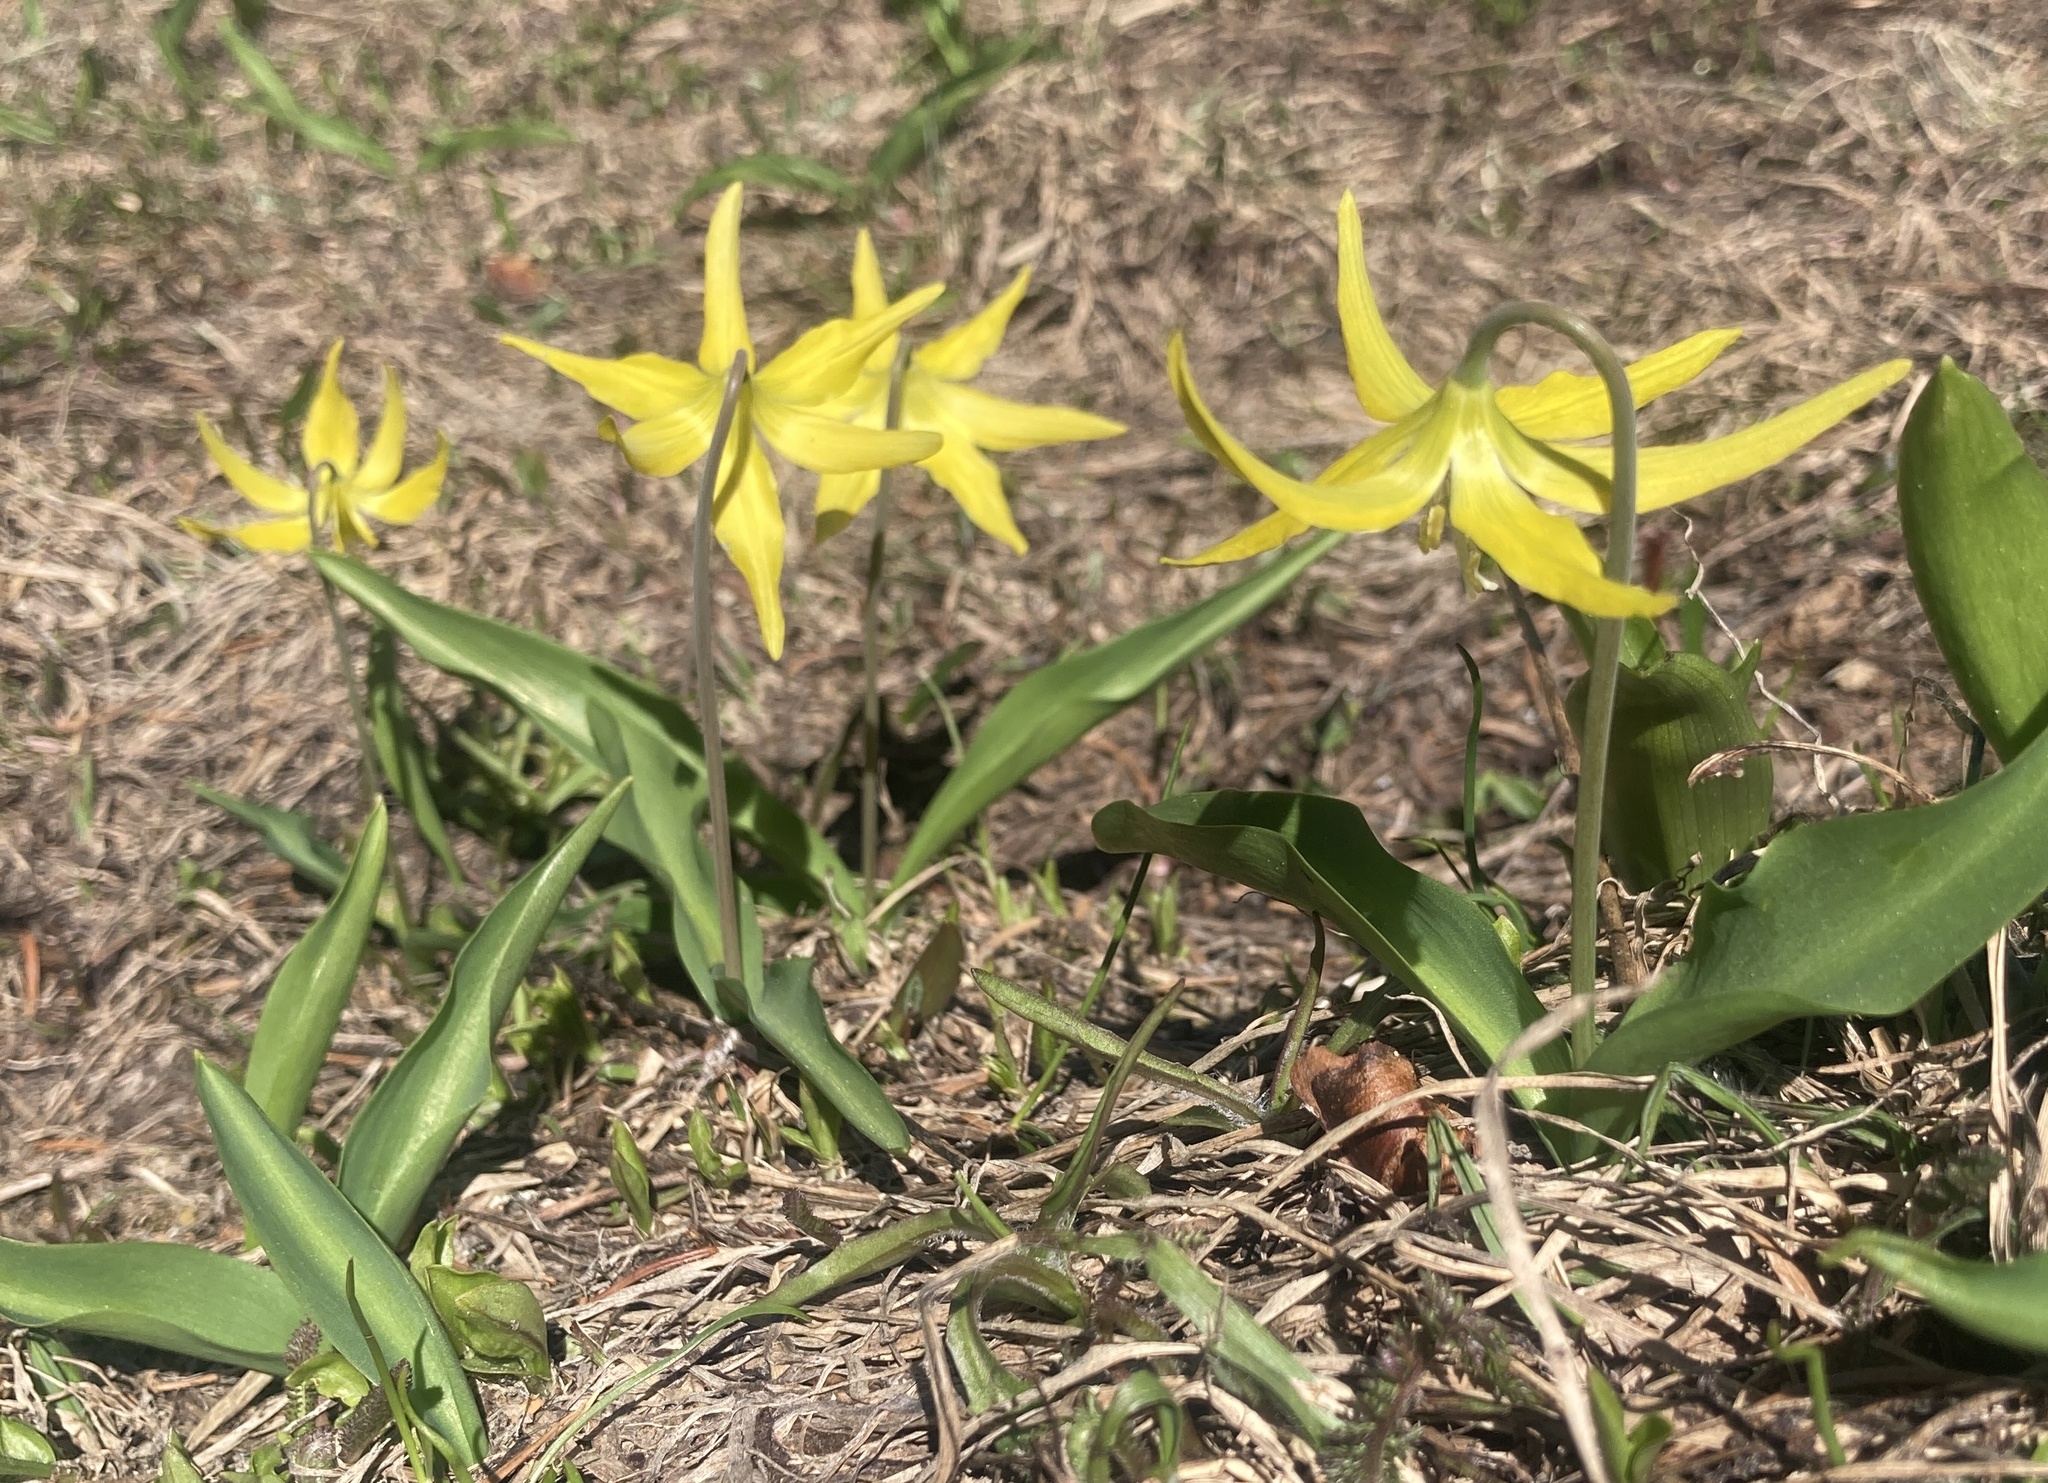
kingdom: Plantae
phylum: Tracheophyta
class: Liliopsida
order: Liliales
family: Liliaceae
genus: Erythronium
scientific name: Erythronium grandiflorum
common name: Avalanche-lily
